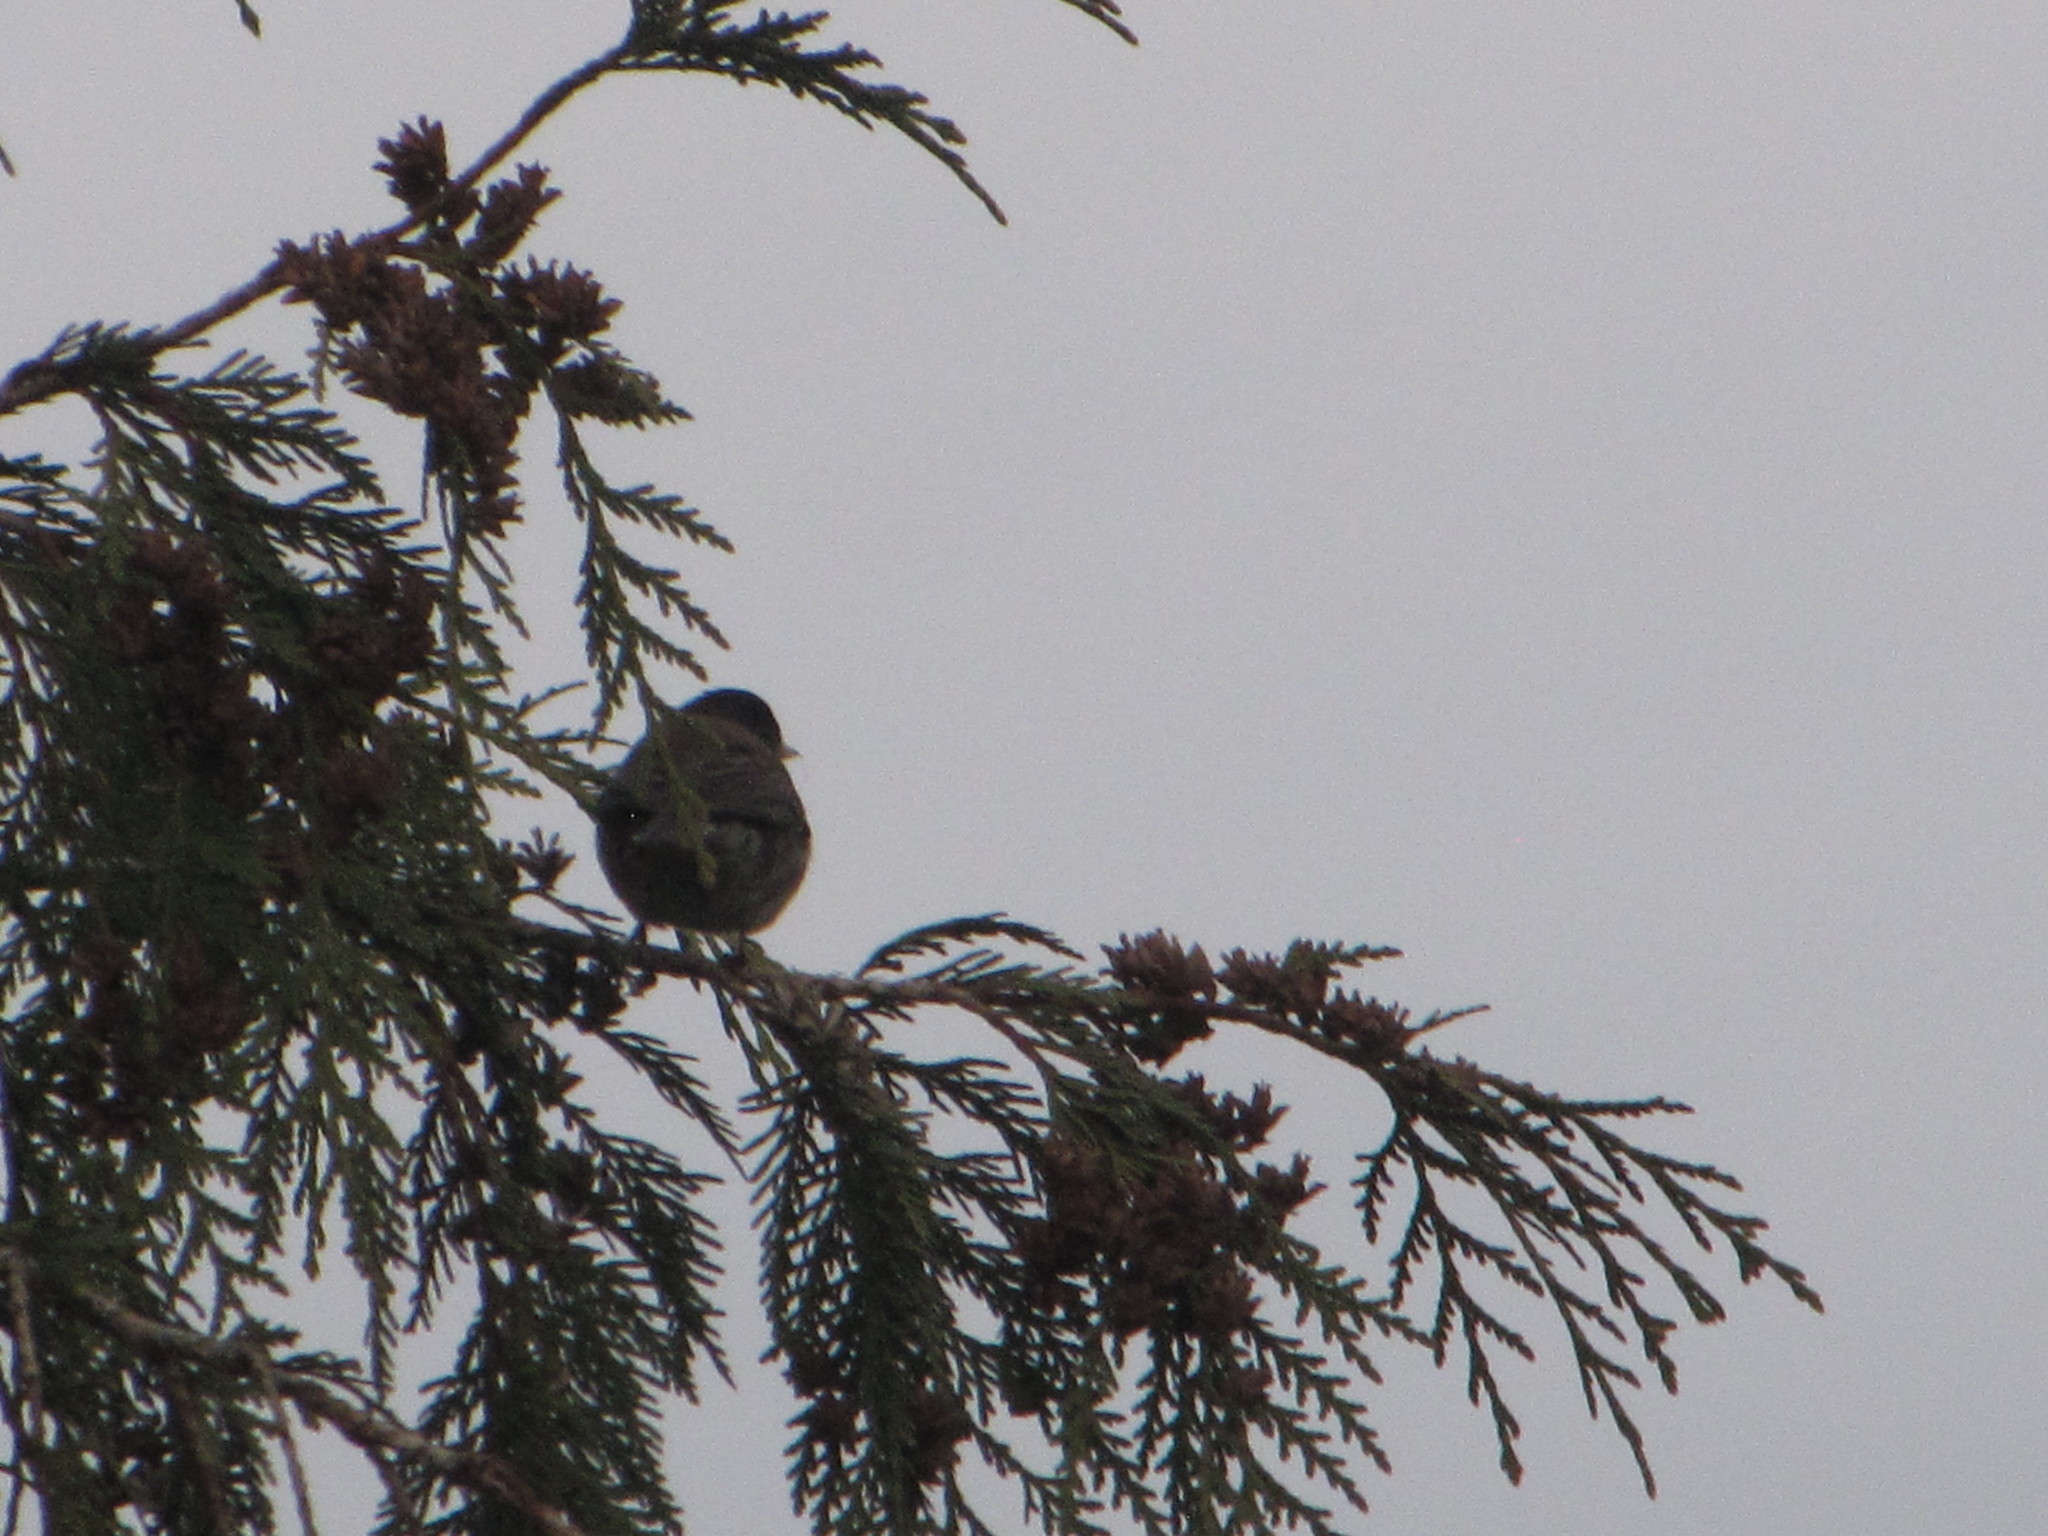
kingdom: Animalia
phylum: Chordata
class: Aves
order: Passeriformes
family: Passerellidae
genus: Junco
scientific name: Junco hyemalis
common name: Dark-eyed junco
